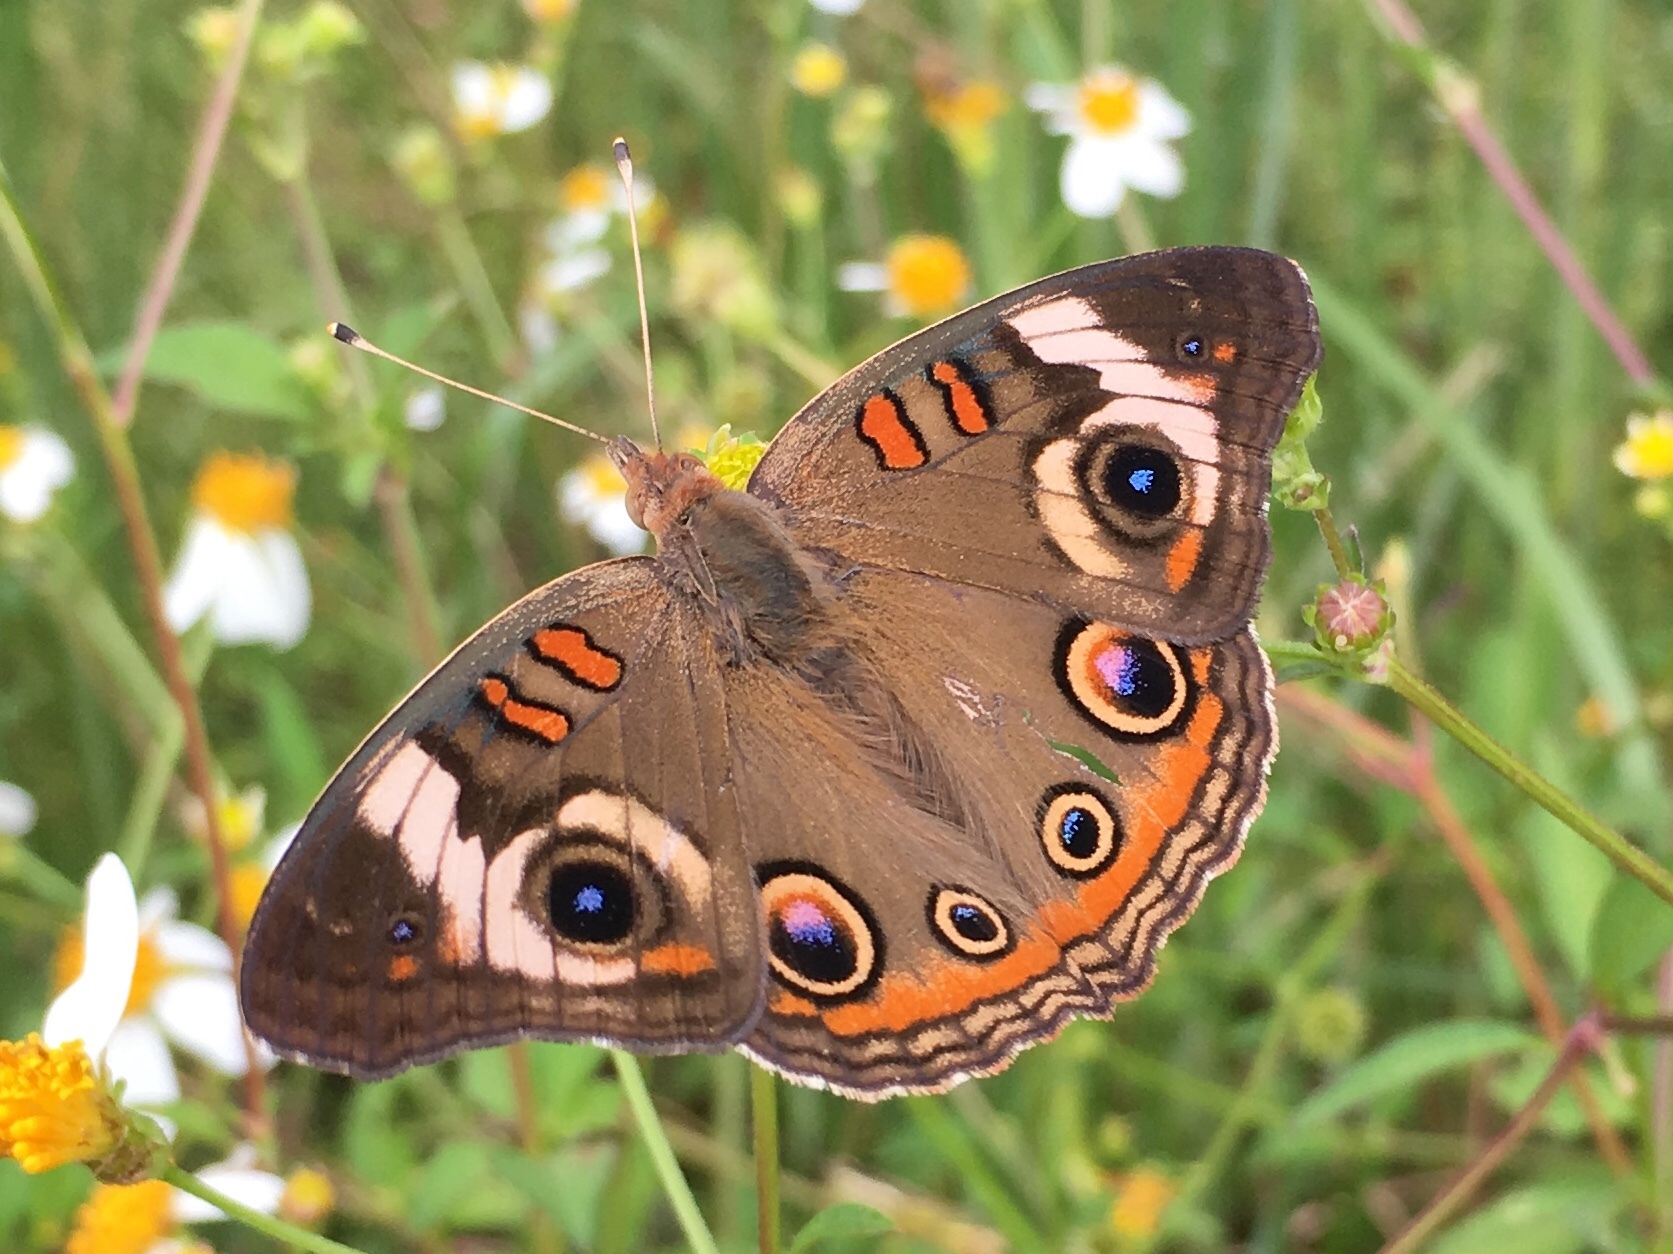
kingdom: Animalia
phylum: Arthropoda
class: Insecta
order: Lepidoptera
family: Nymphalidae
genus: Junonia
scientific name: Junonia coenia
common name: Common buckeye
